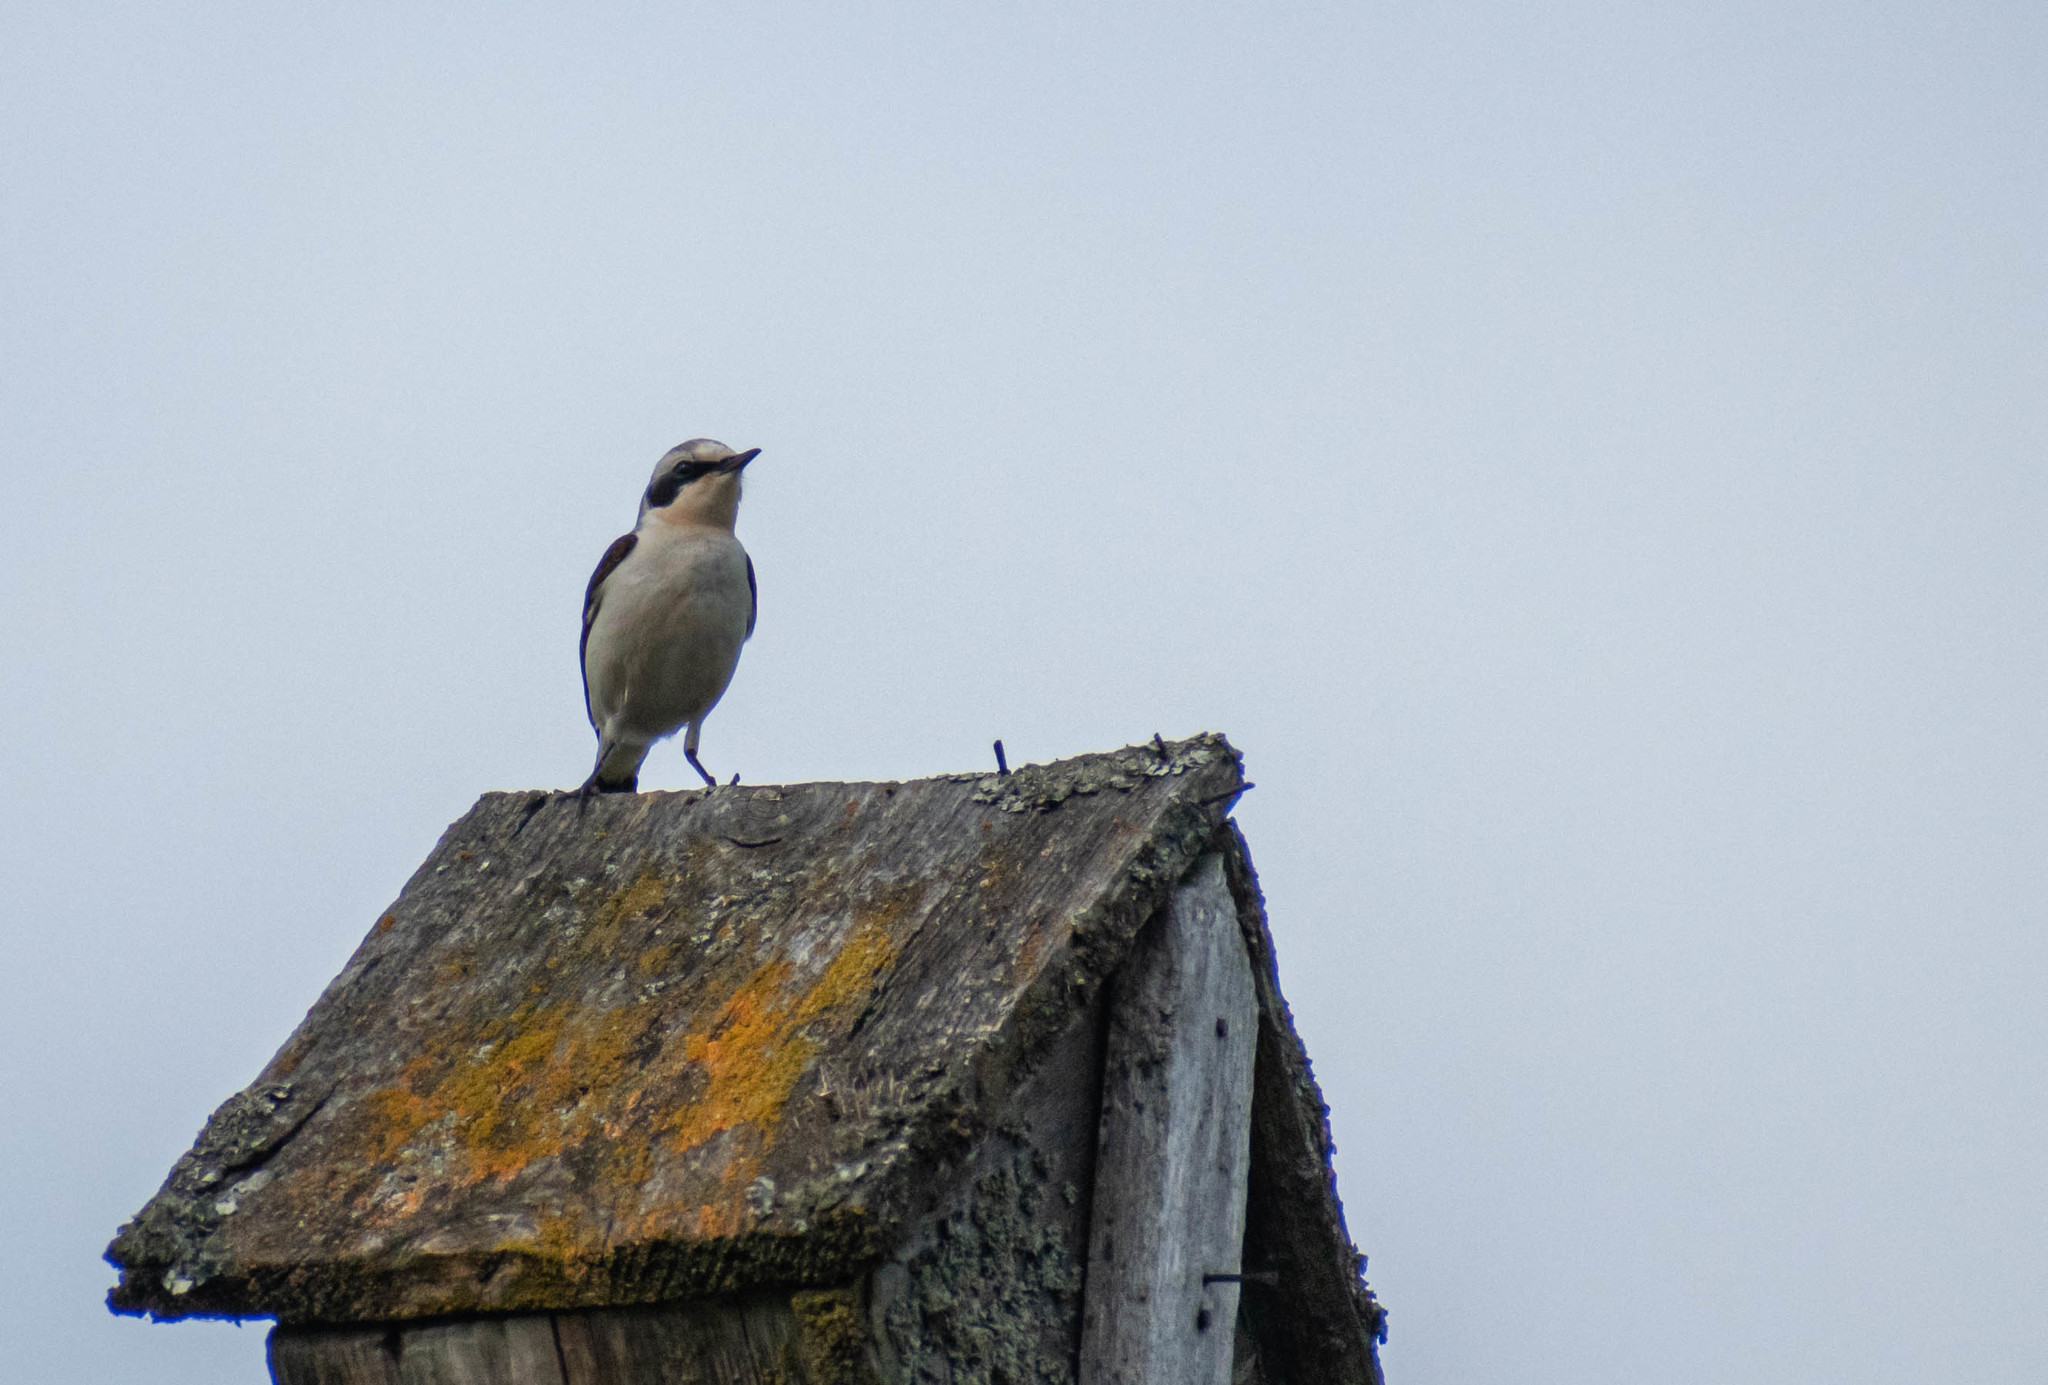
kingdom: Animalia
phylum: Chordata
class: Aves
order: Passeriformes
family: Muscicapidae
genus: Oenanthe
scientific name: Oenanthe oenanthe
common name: Northern wheatear
